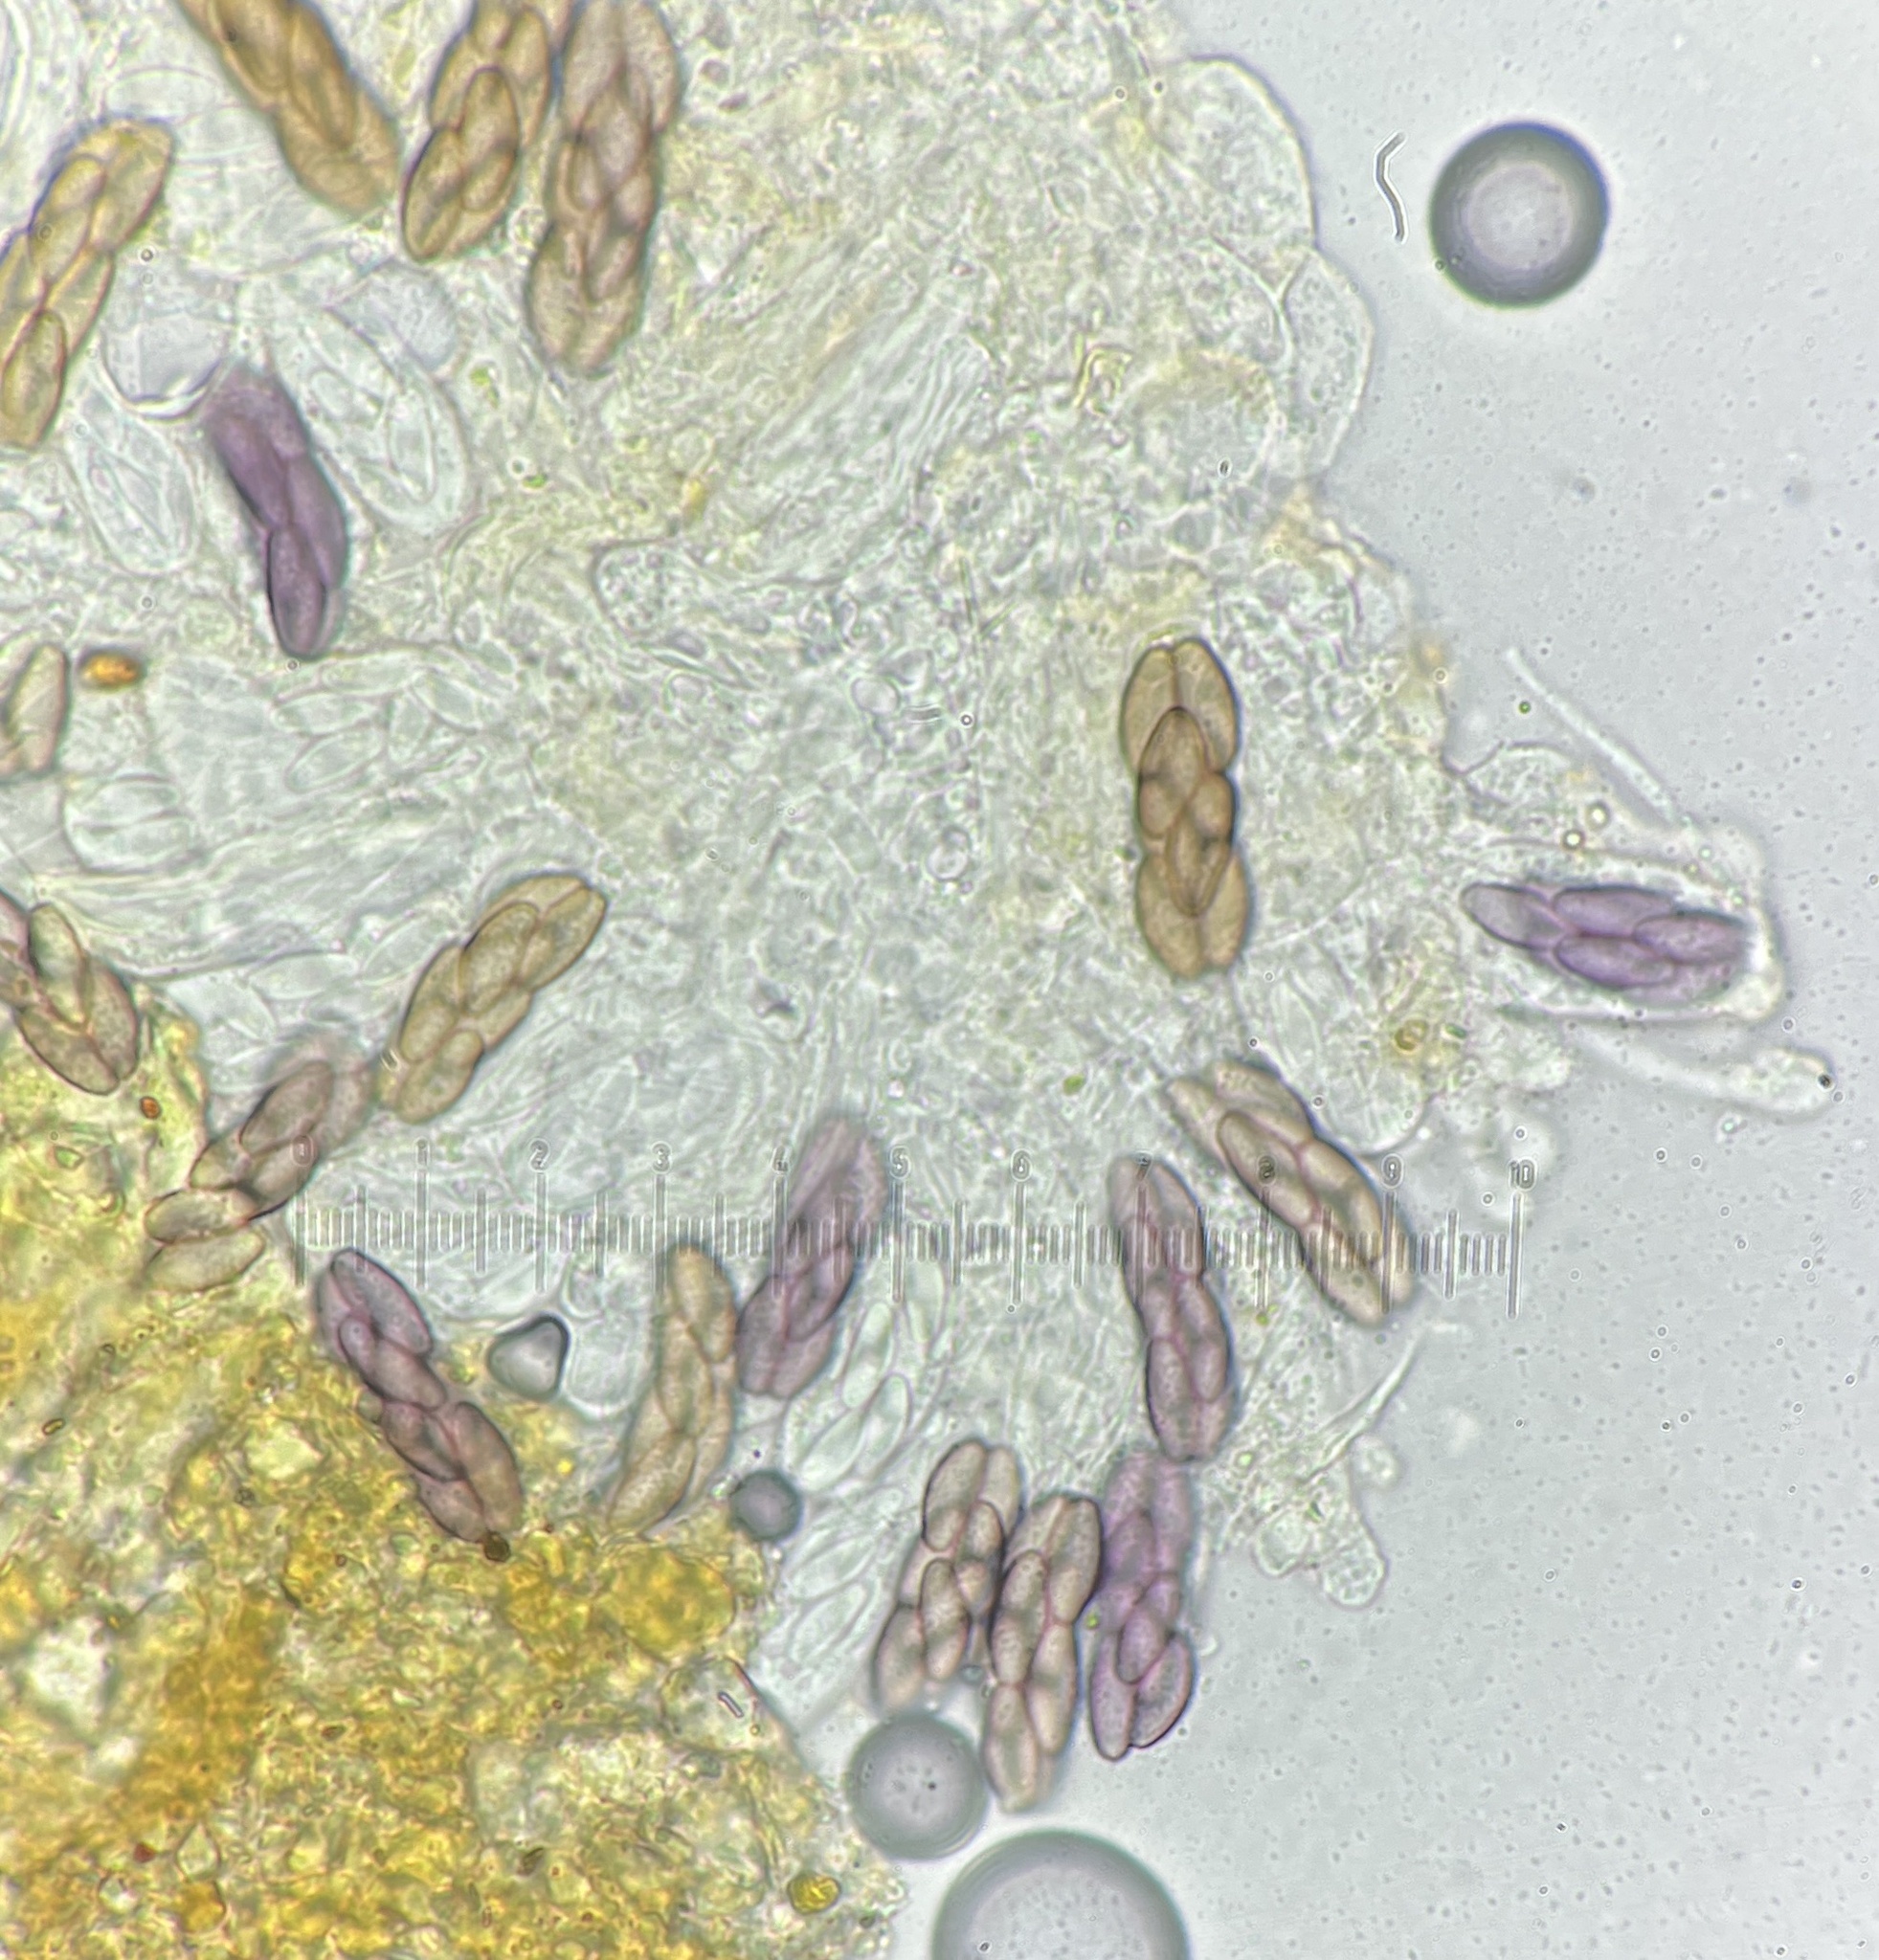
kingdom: Fungi
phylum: Ascomycota
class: Pezizomycetes
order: Pezizales
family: Ascobolaceae
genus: Saccobolus
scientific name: Saccobolus citrinus
